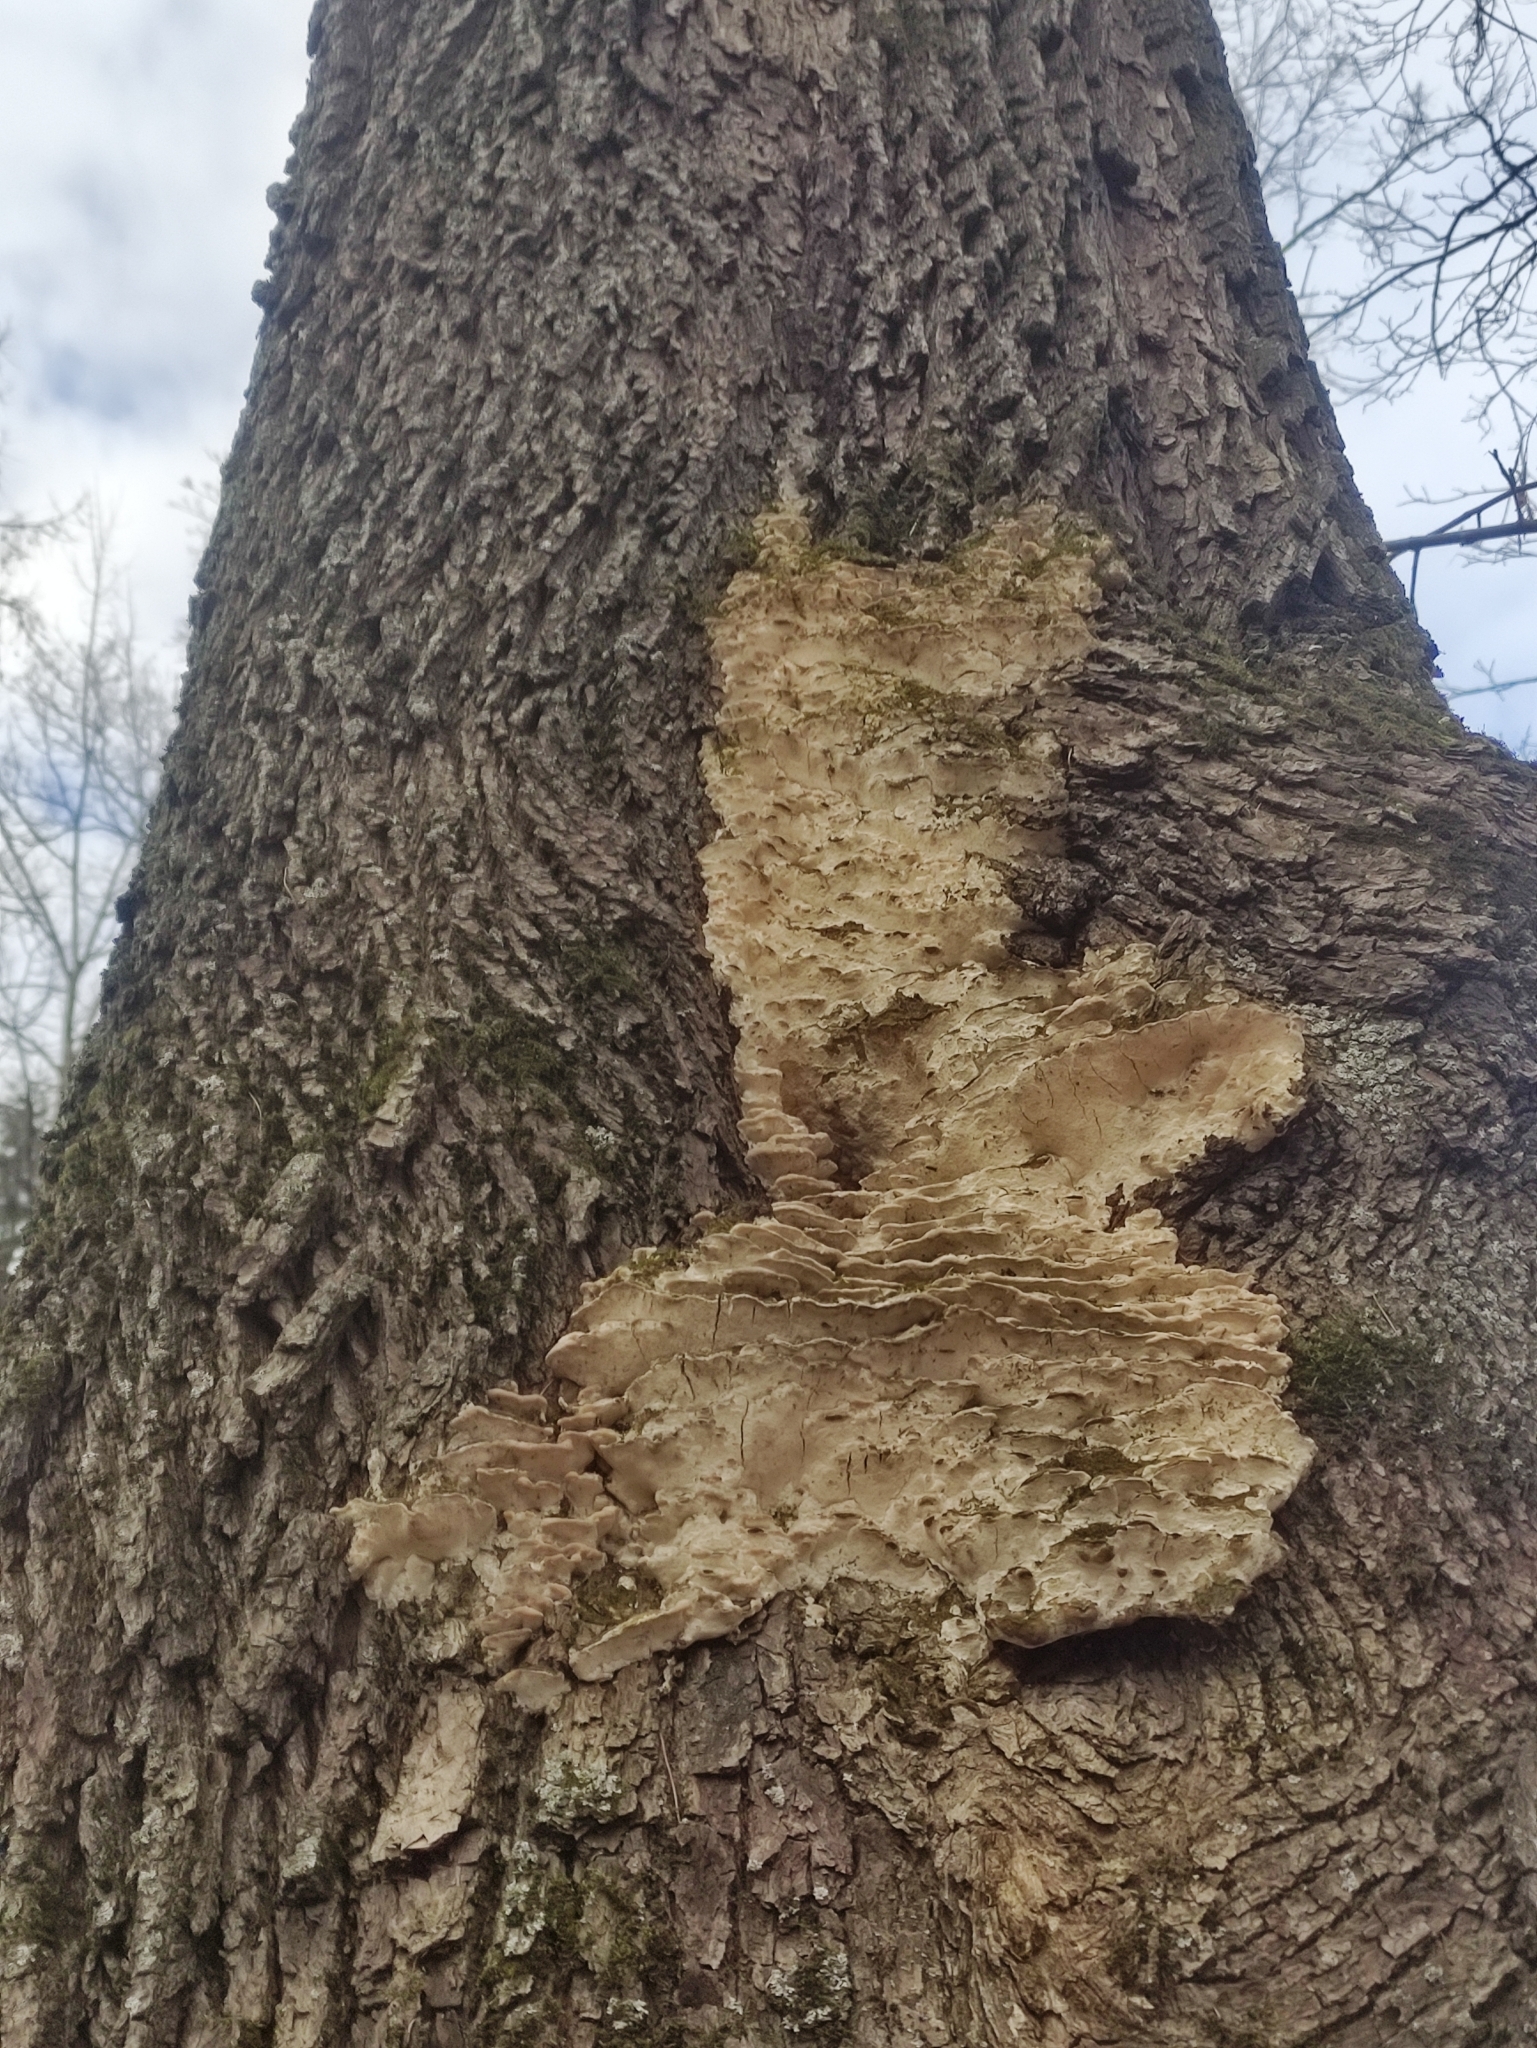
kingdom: Fungi
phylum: Basidiomycota
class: Agaricomycetes
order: Hymenochaetales
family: Oxyporaceae
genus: Oxyporus
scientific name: Oxyporus populinus
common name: Poplar bracket
